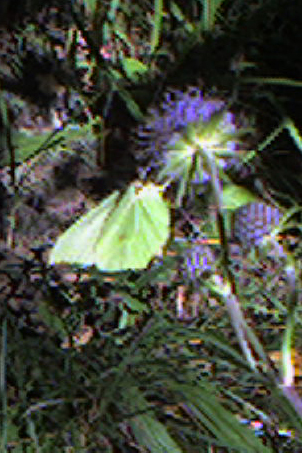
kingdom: Animalia
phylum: Arthropoda
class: Insecta
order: Lepidoptera
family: Pieridae
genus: Gonepteryx
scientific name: Gonepteryx rhamni
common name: Brimstone
